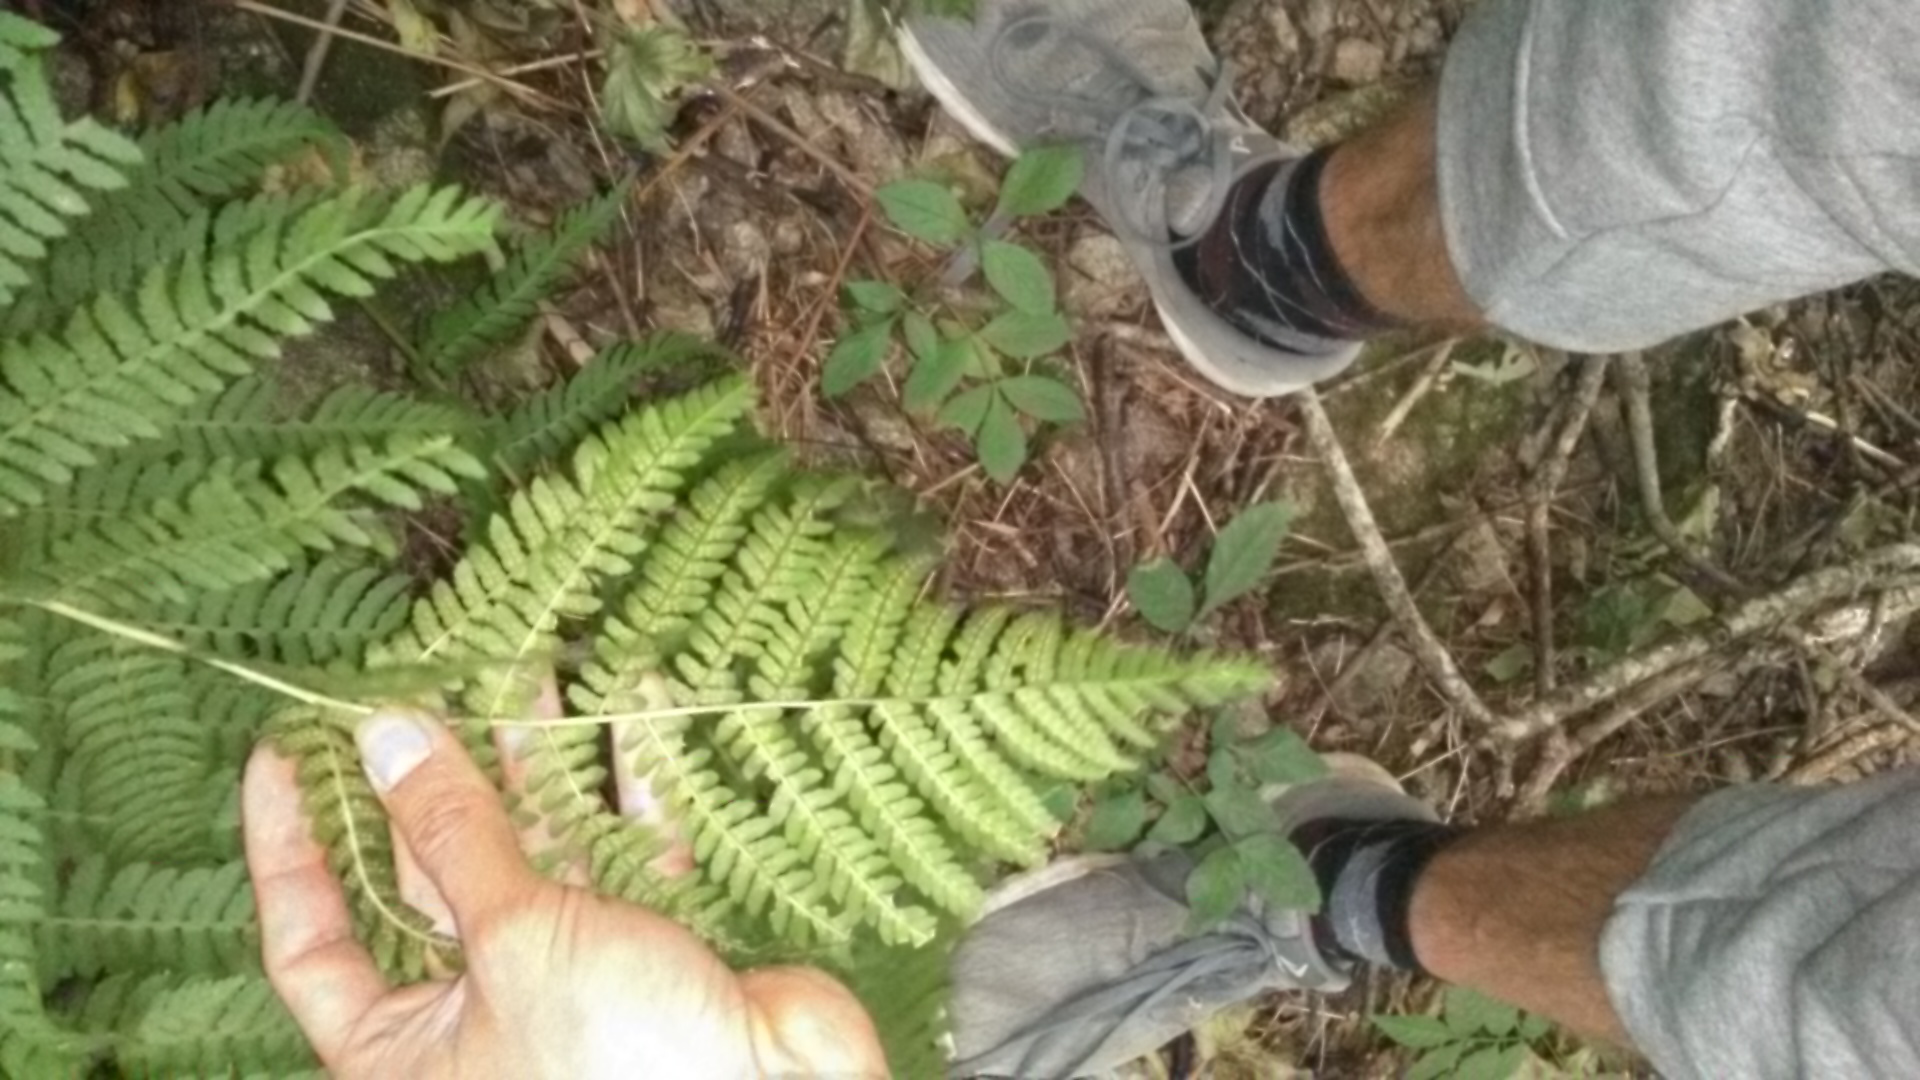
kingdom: Plantae
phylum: Tracheophyta
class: Polypodiopsida
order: Polypodiales
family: Dryopteridaceae
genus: Dryopteris
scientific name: Dryopteris filix-mas
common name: Male fern
